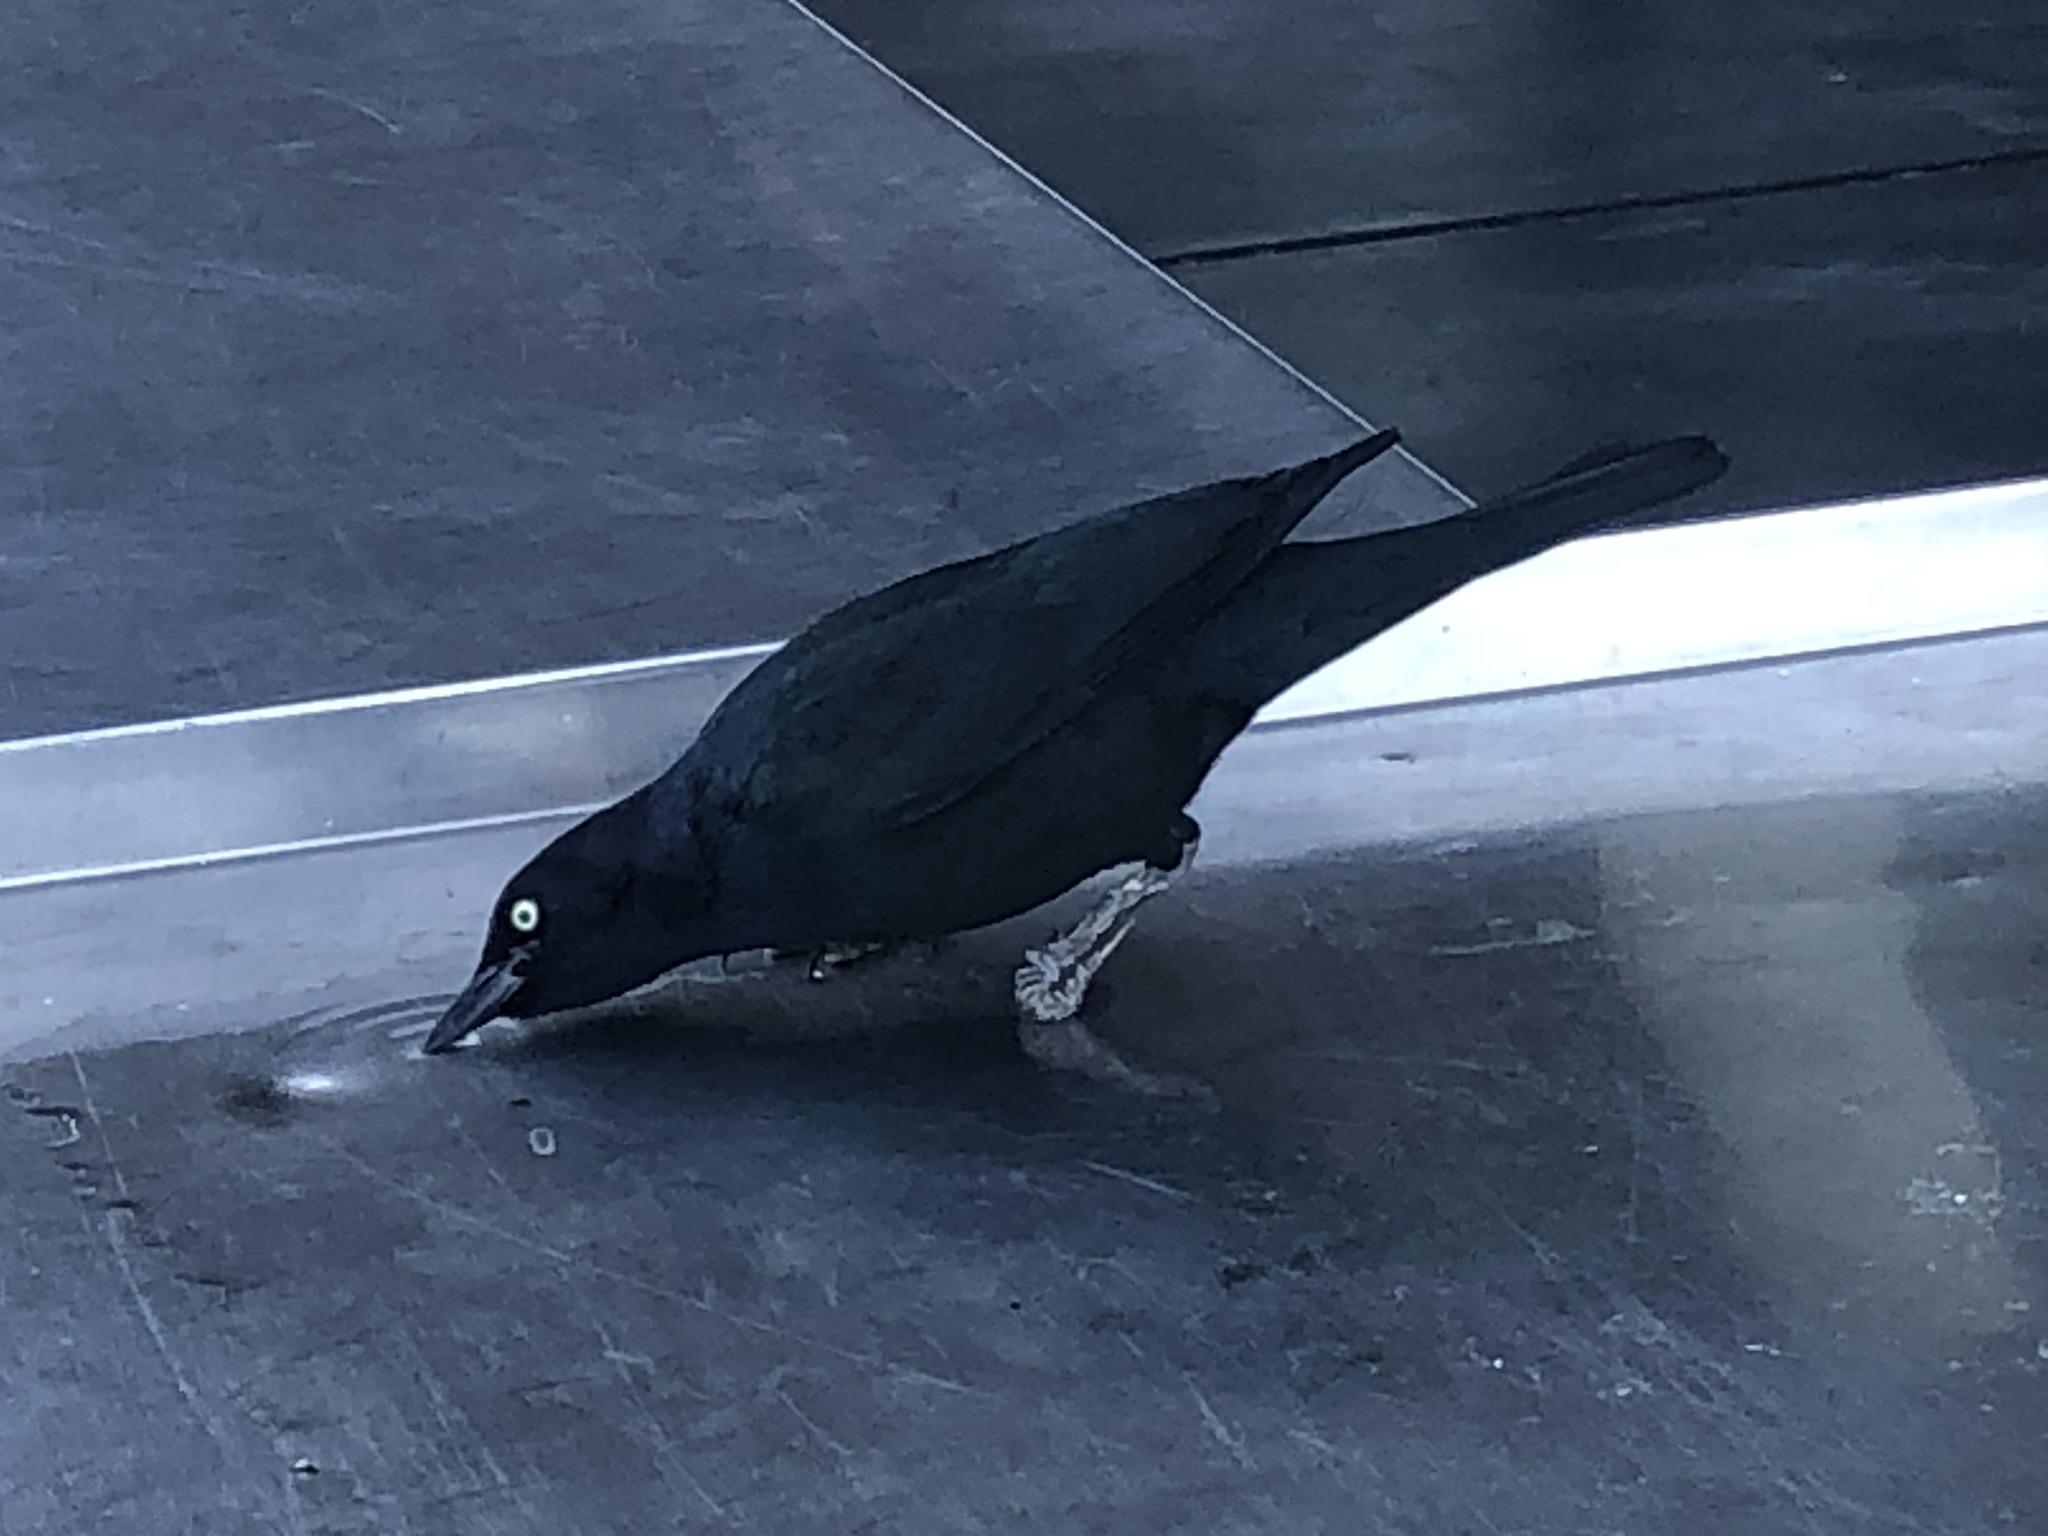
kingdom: Animalia
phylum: Chordata
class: Aves
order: Passeriformes
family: Icteridae
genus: Euphagus
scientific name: Euphagus cyanocephalus
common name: Brewer's blackbird
